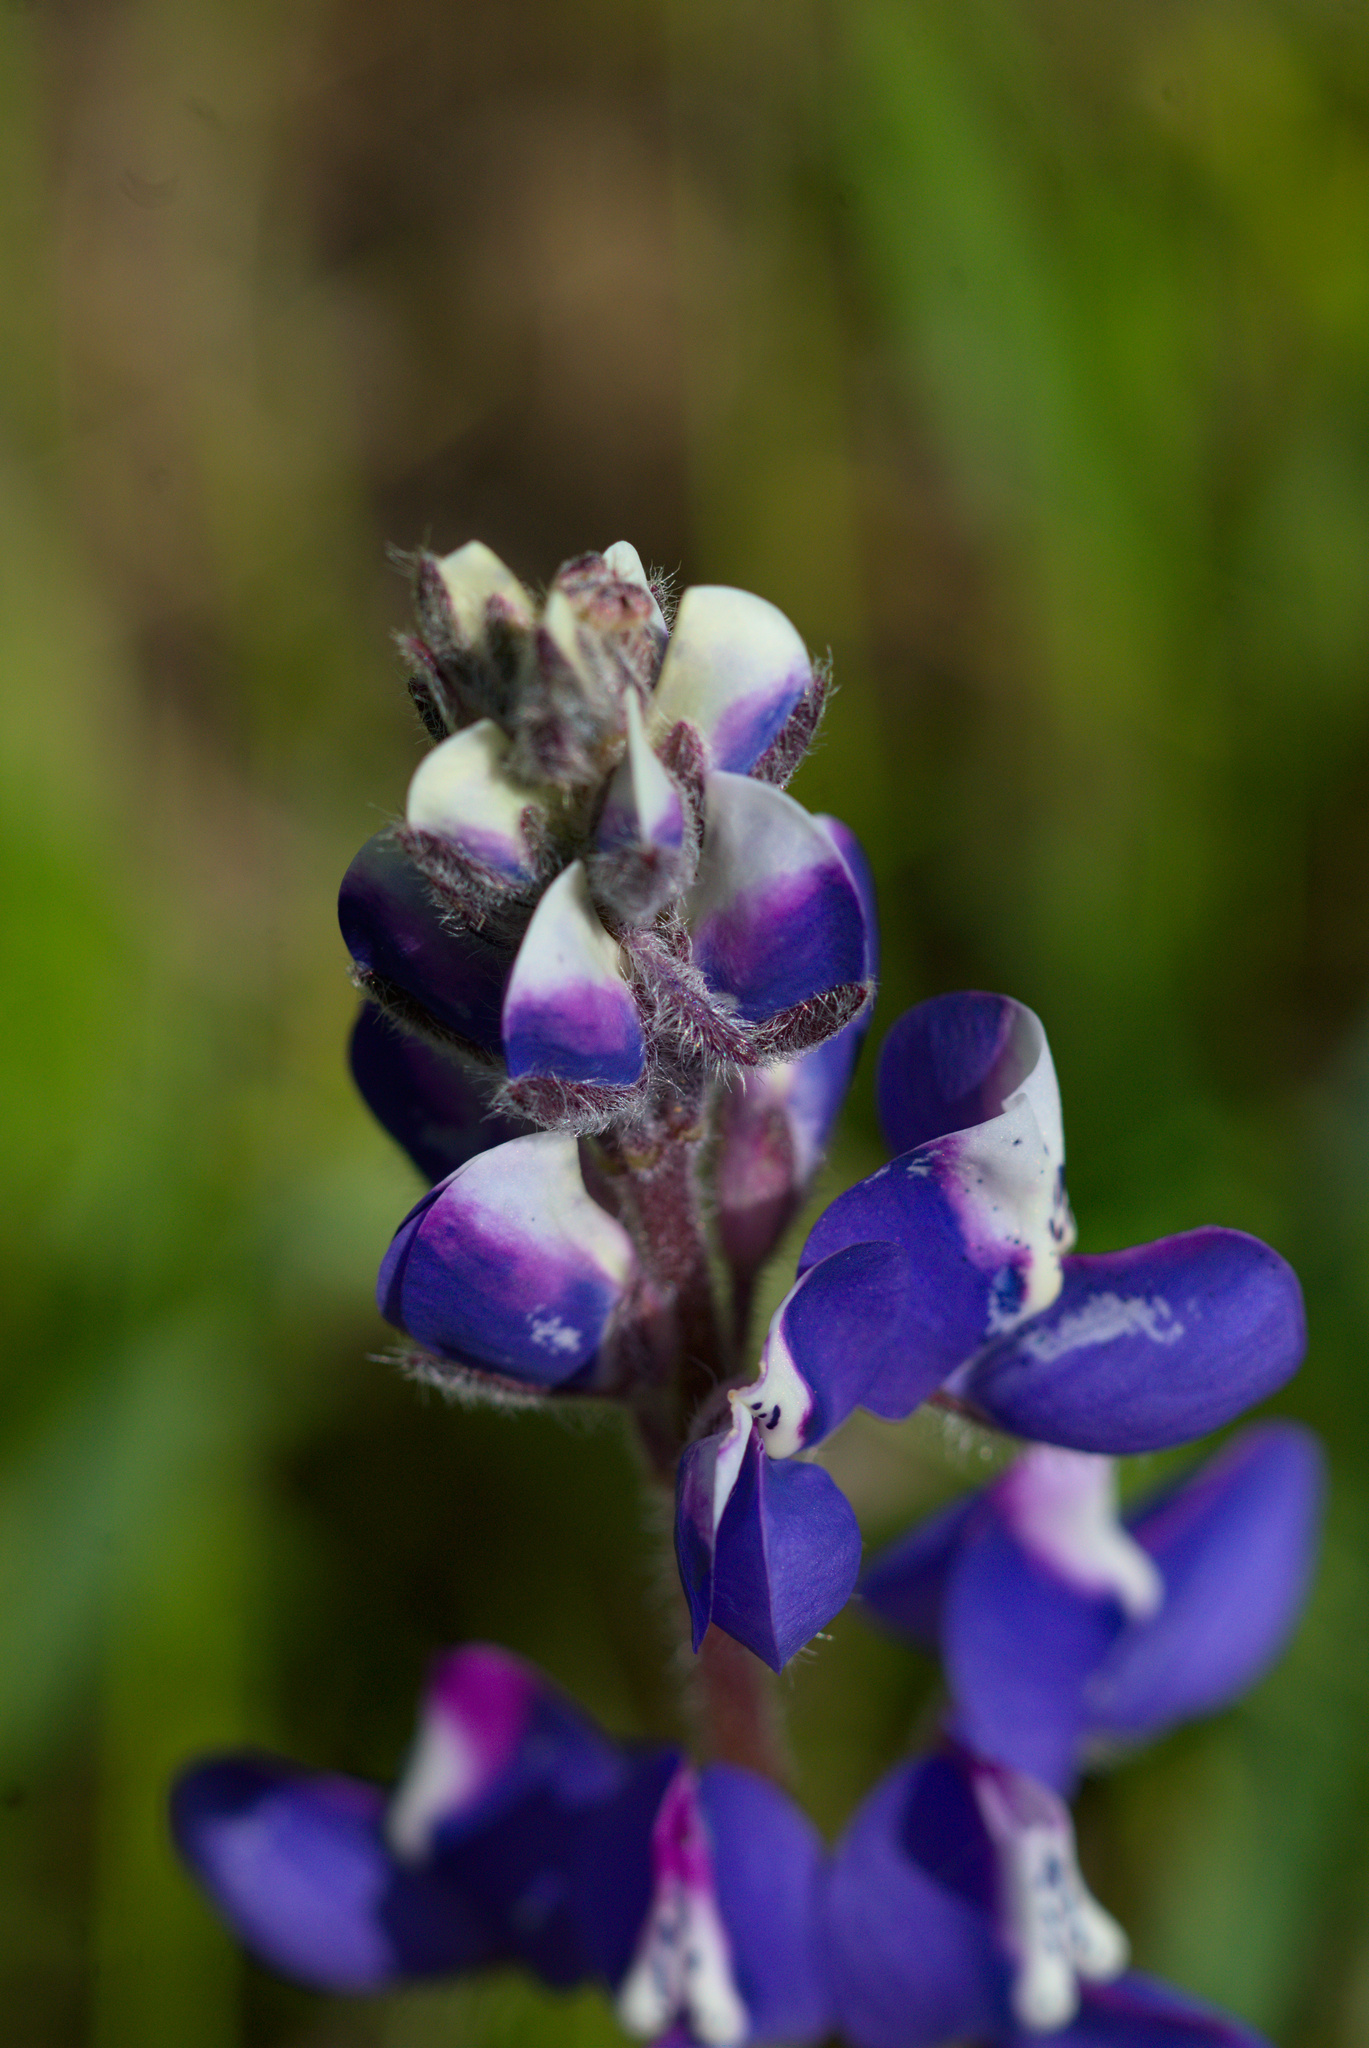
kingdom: Plantae
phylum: Tracheophyta
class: Magnoliopsida
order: Fabales
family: Fabaceae
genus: Lupinus
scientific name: Lupinus nanus
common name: Orean blue lupin
